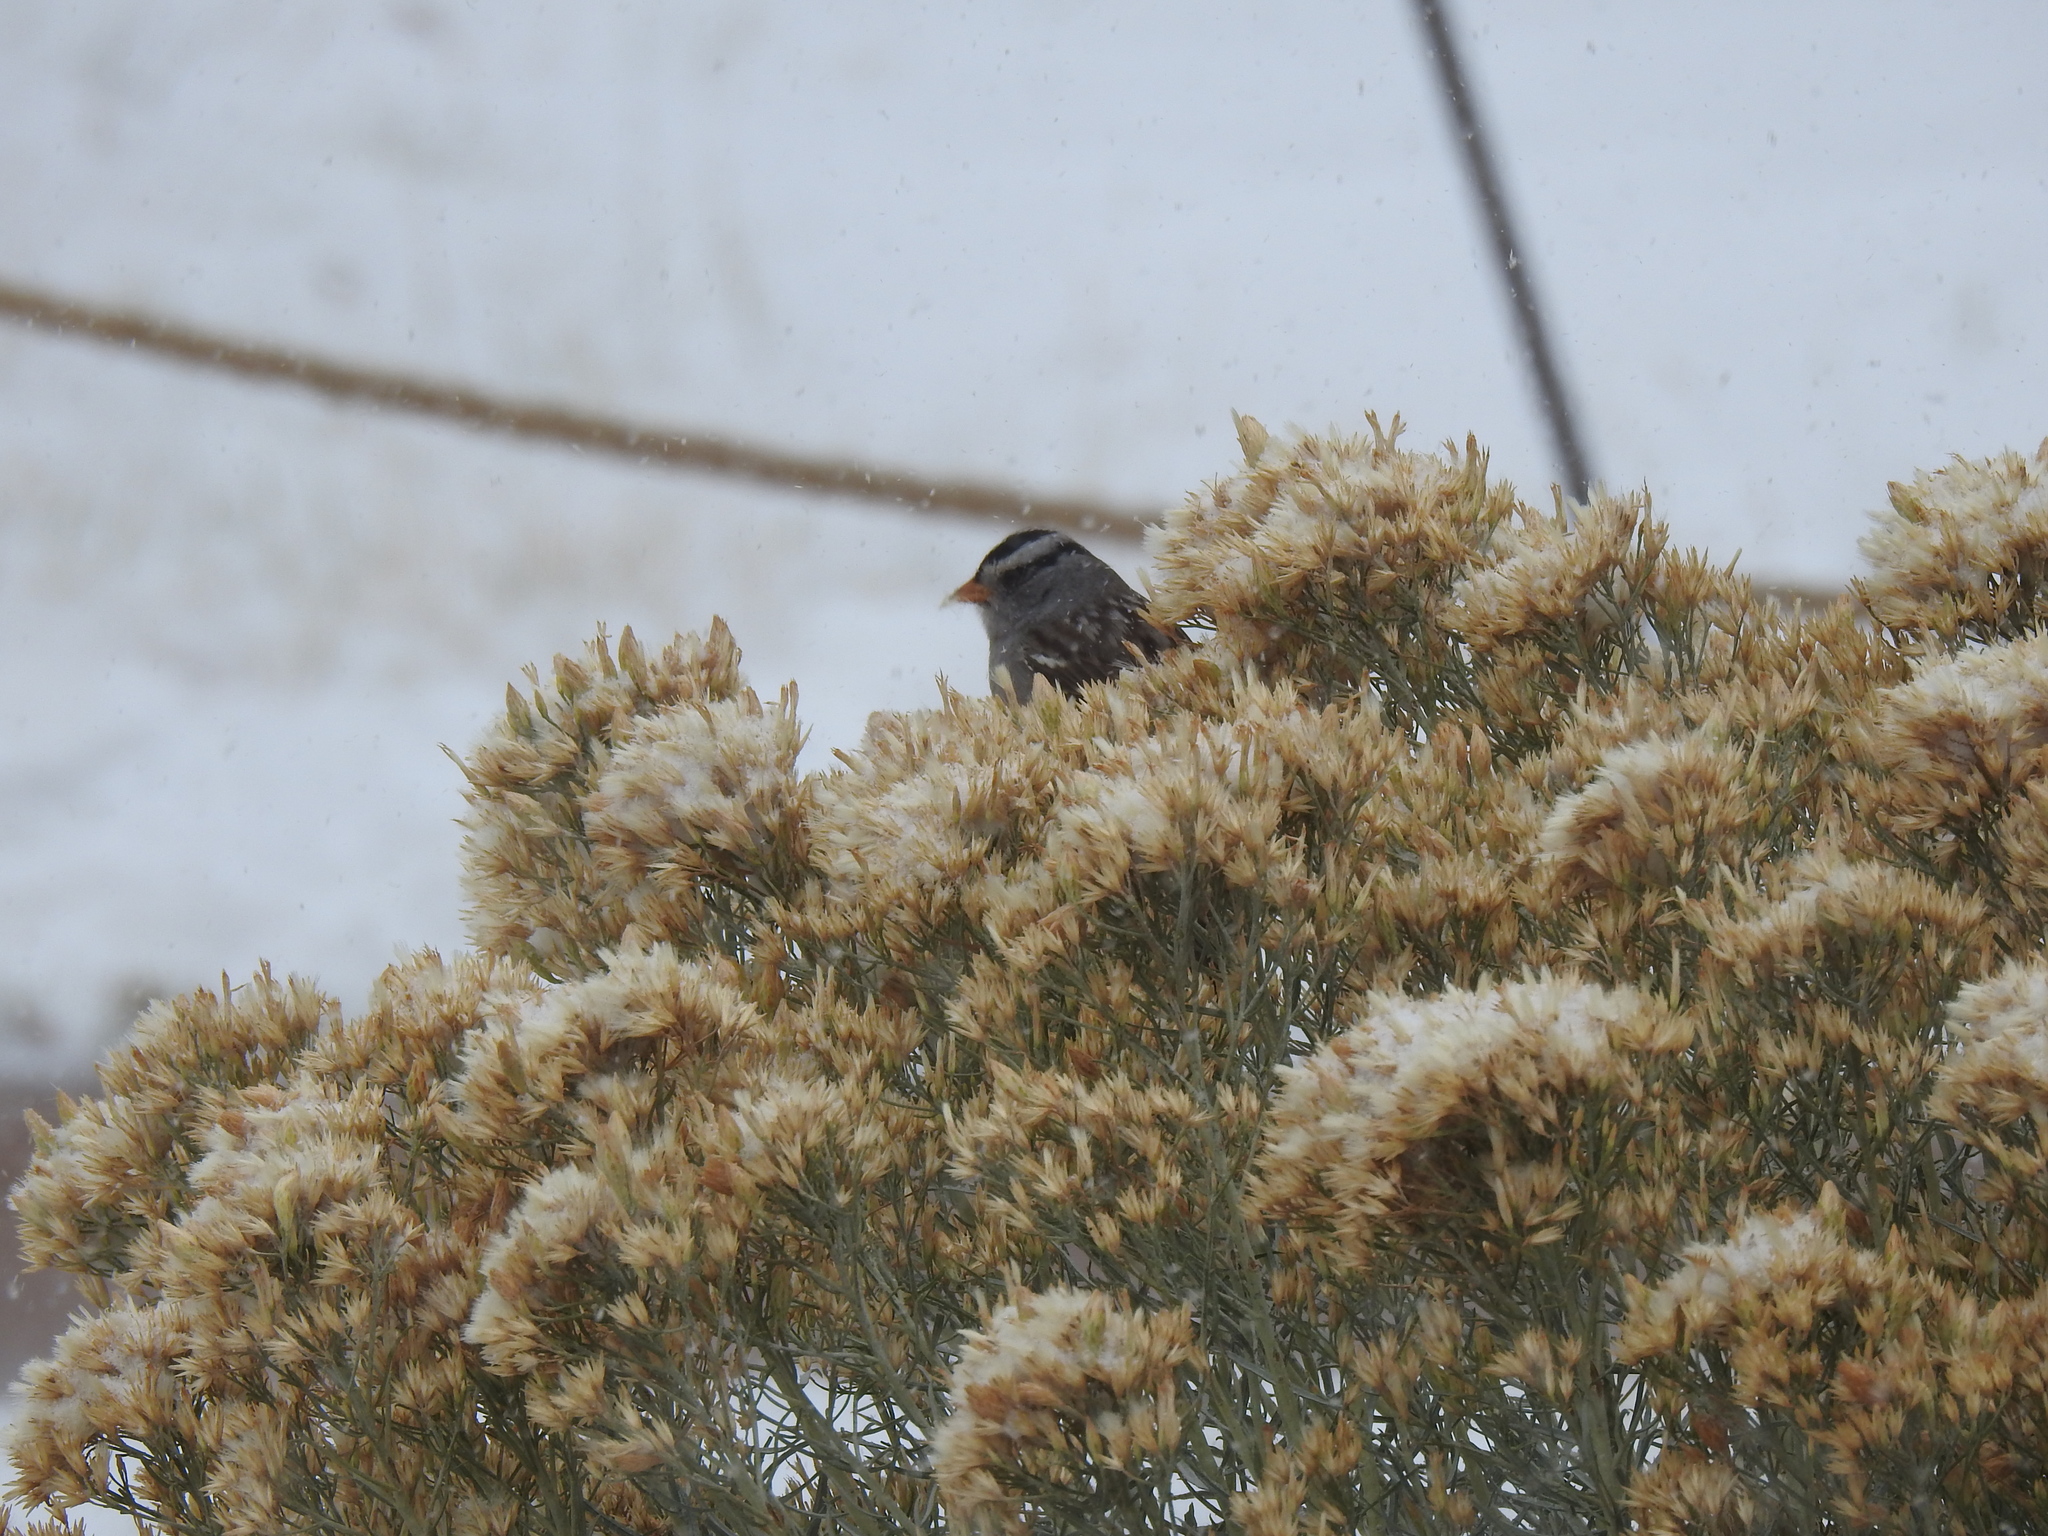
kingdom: Animalia
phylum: Chordata
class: Aves
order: Passeriformes
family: Passerellidae
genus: Zonotrichia
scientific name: Zonotrichia leucophrys
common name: White-crowned sparrow
